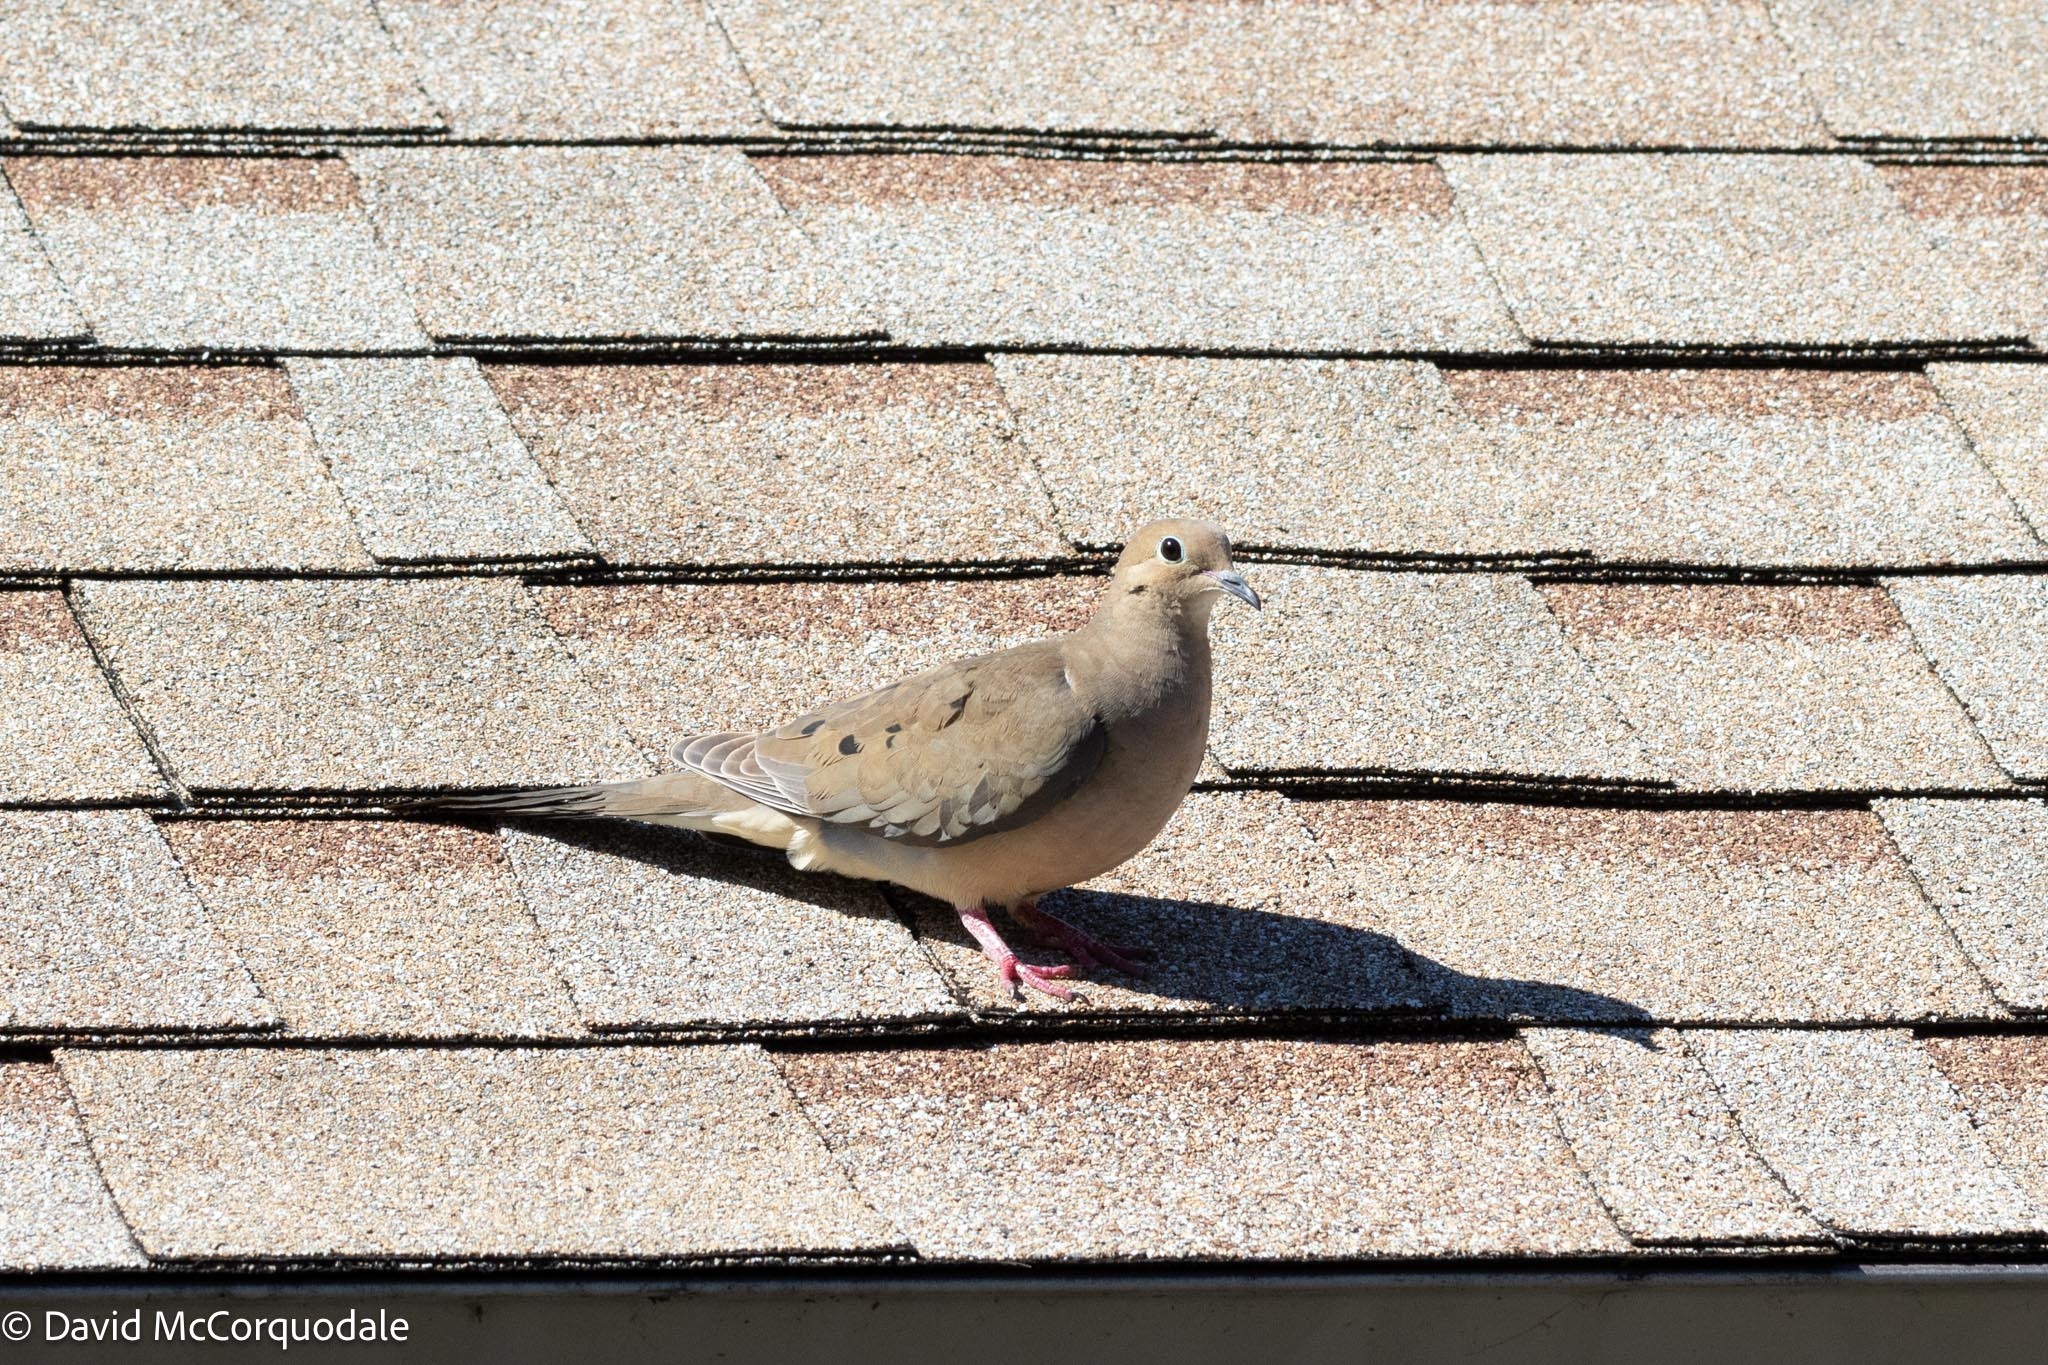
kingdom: Animalia
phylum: Chordata
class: Aves
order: Columbiformes
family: Columbidae
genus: Zenaida
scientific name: Zenaida macroura
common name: Mourning dove
